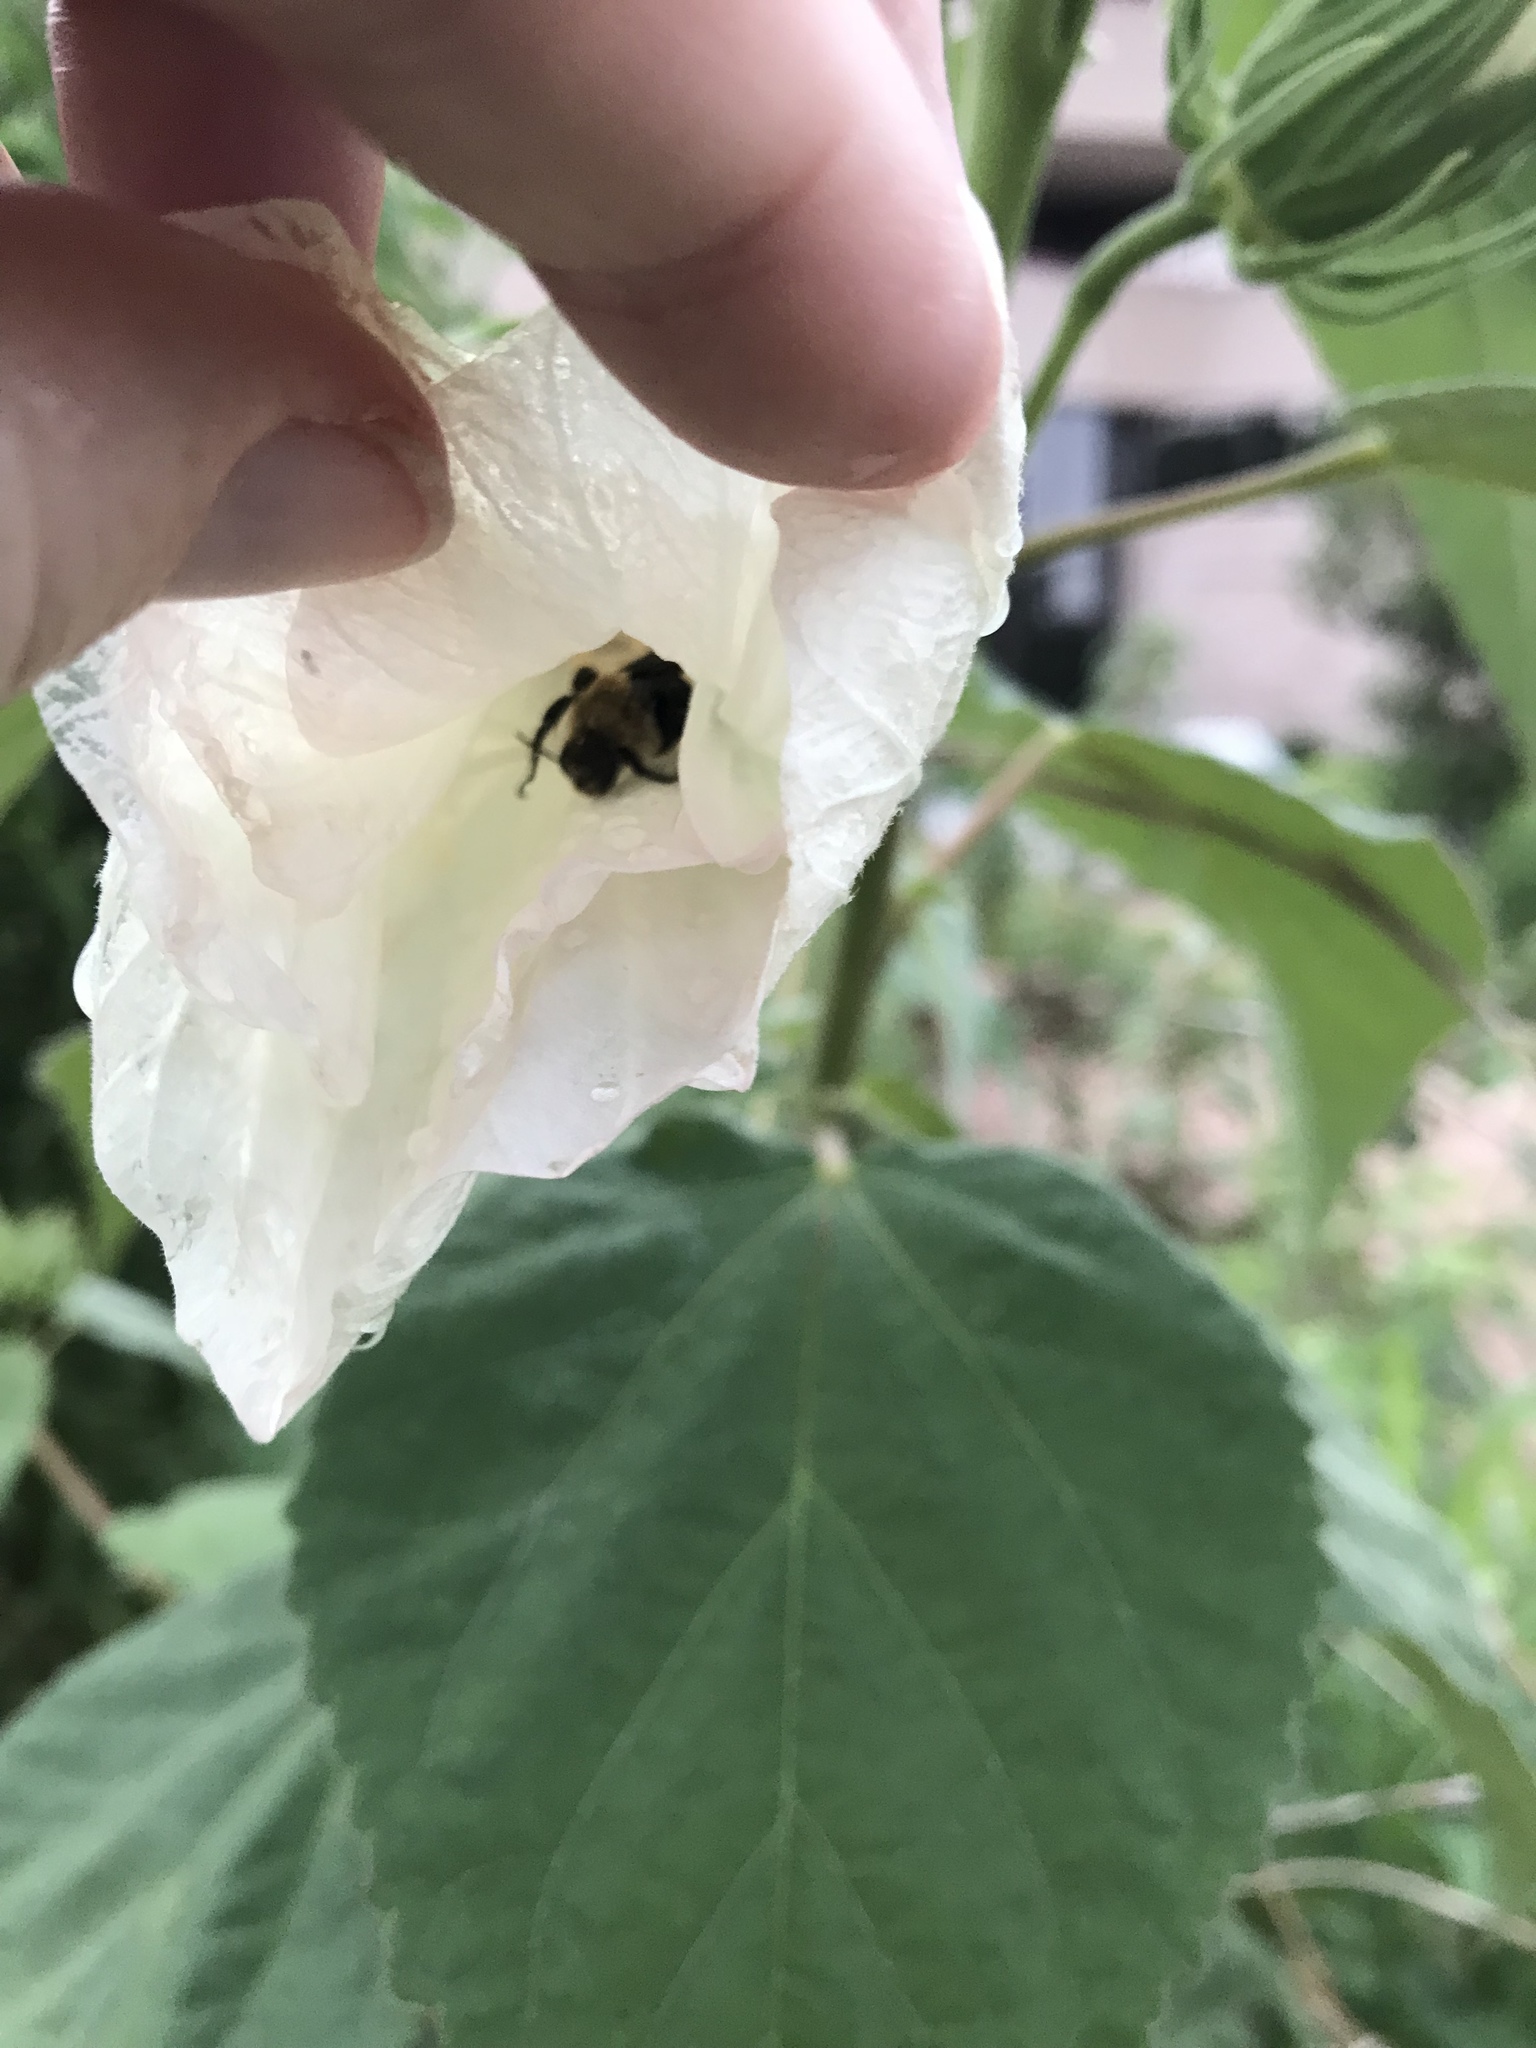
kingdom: Animalia
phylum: Arthropoda
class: Insecta
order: Hymenoptera
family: Apidae
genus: Ptilothrix
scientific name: Ptilothrix bombiformis
